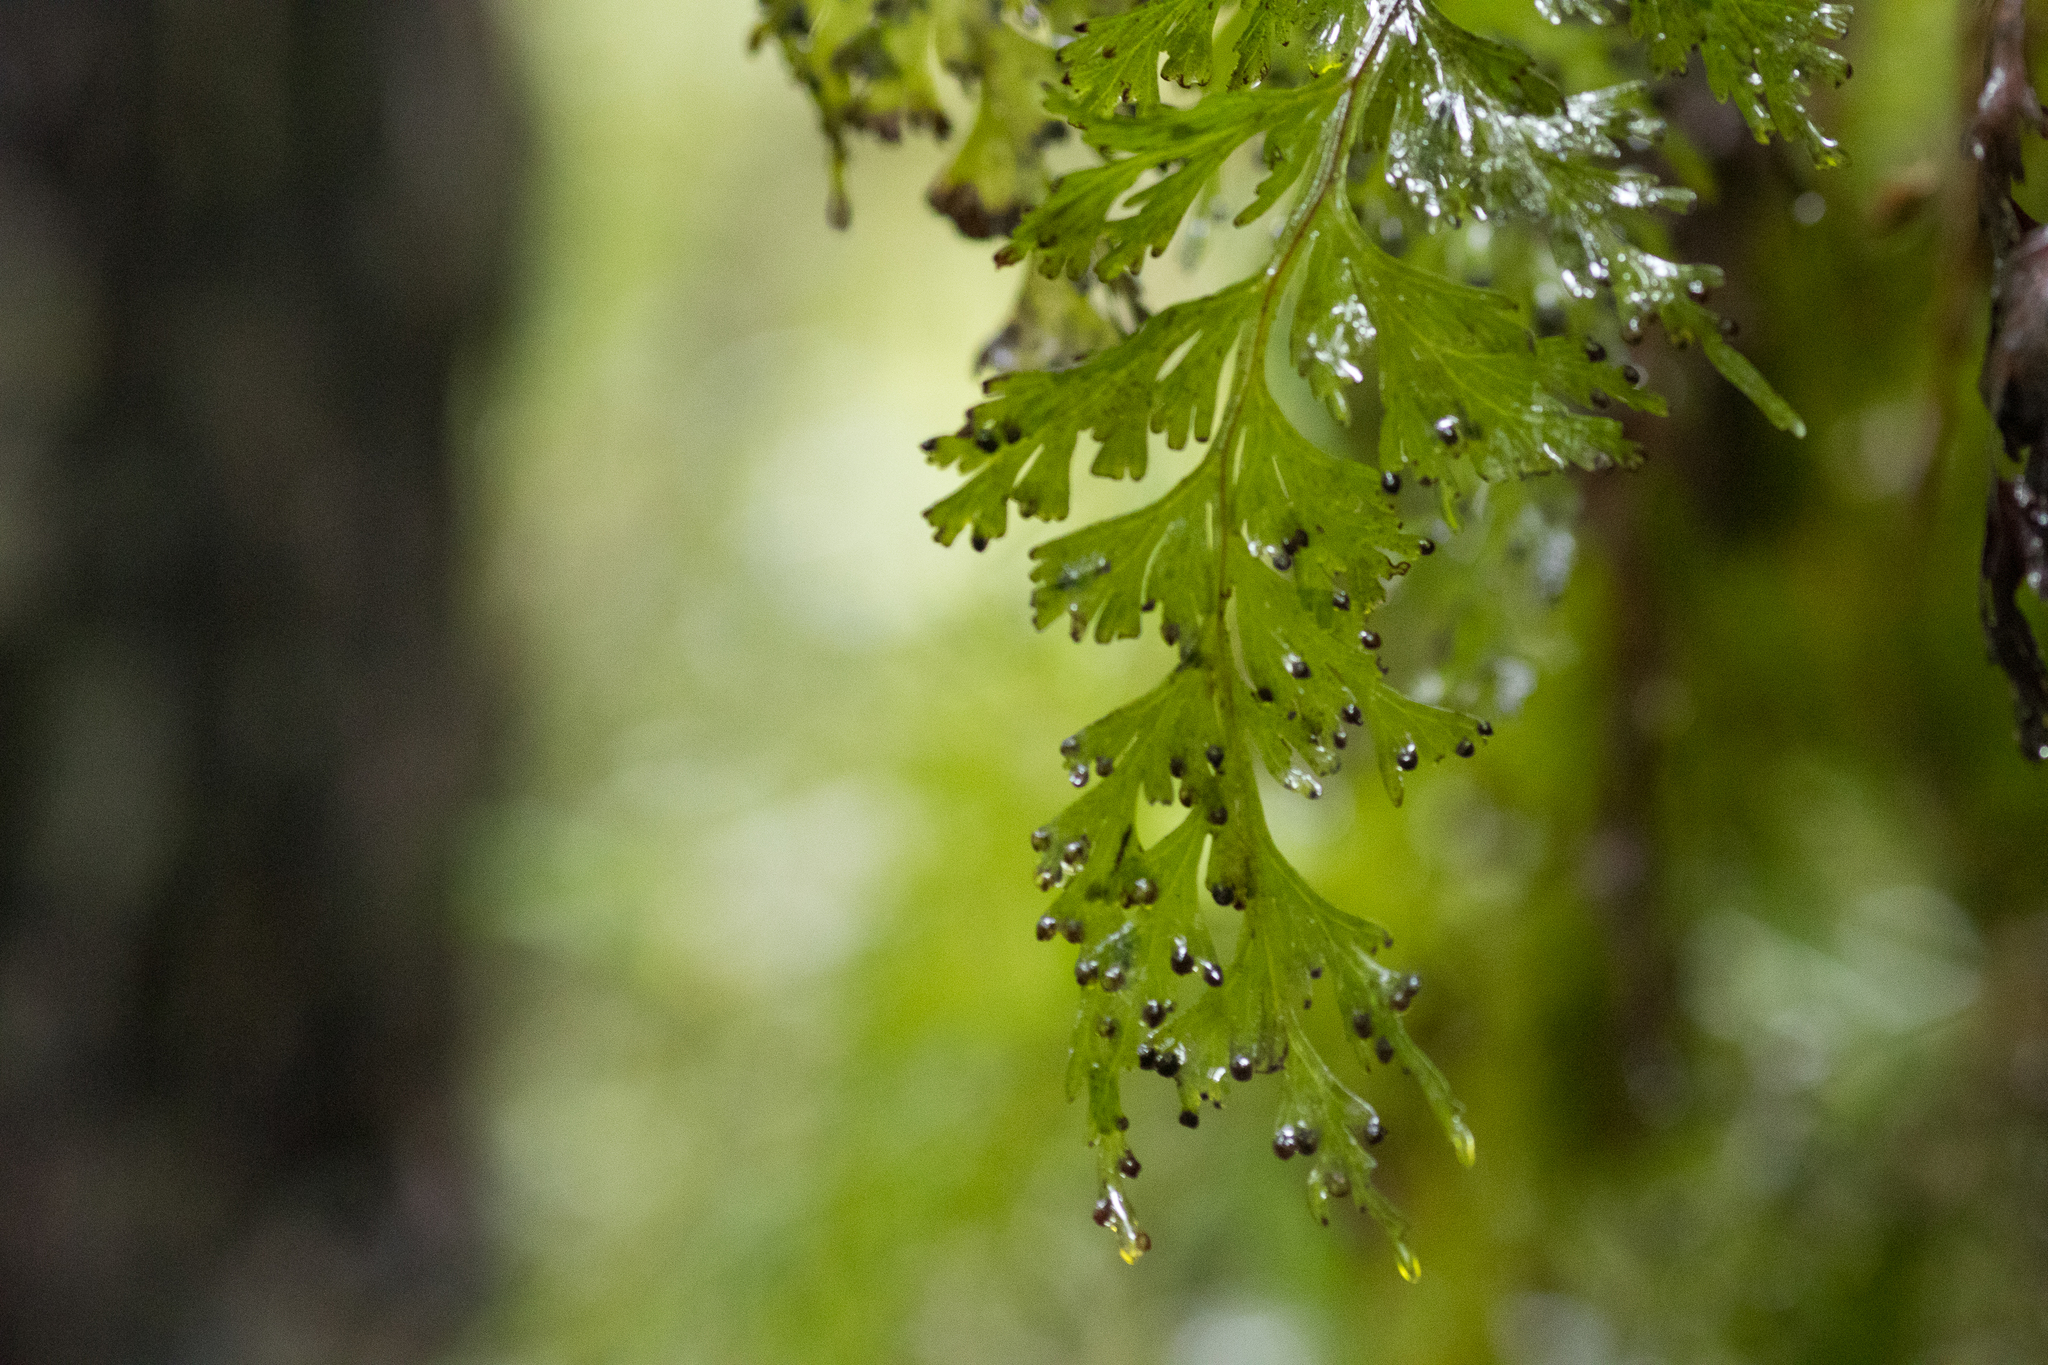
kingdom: Plantae
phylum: Tracheophyta
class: Polypodiopsida
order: Hymenophyllales
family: Hymenophyllaceae
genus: Hymenophyllum
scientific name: Hymenophyllum dilatatum
